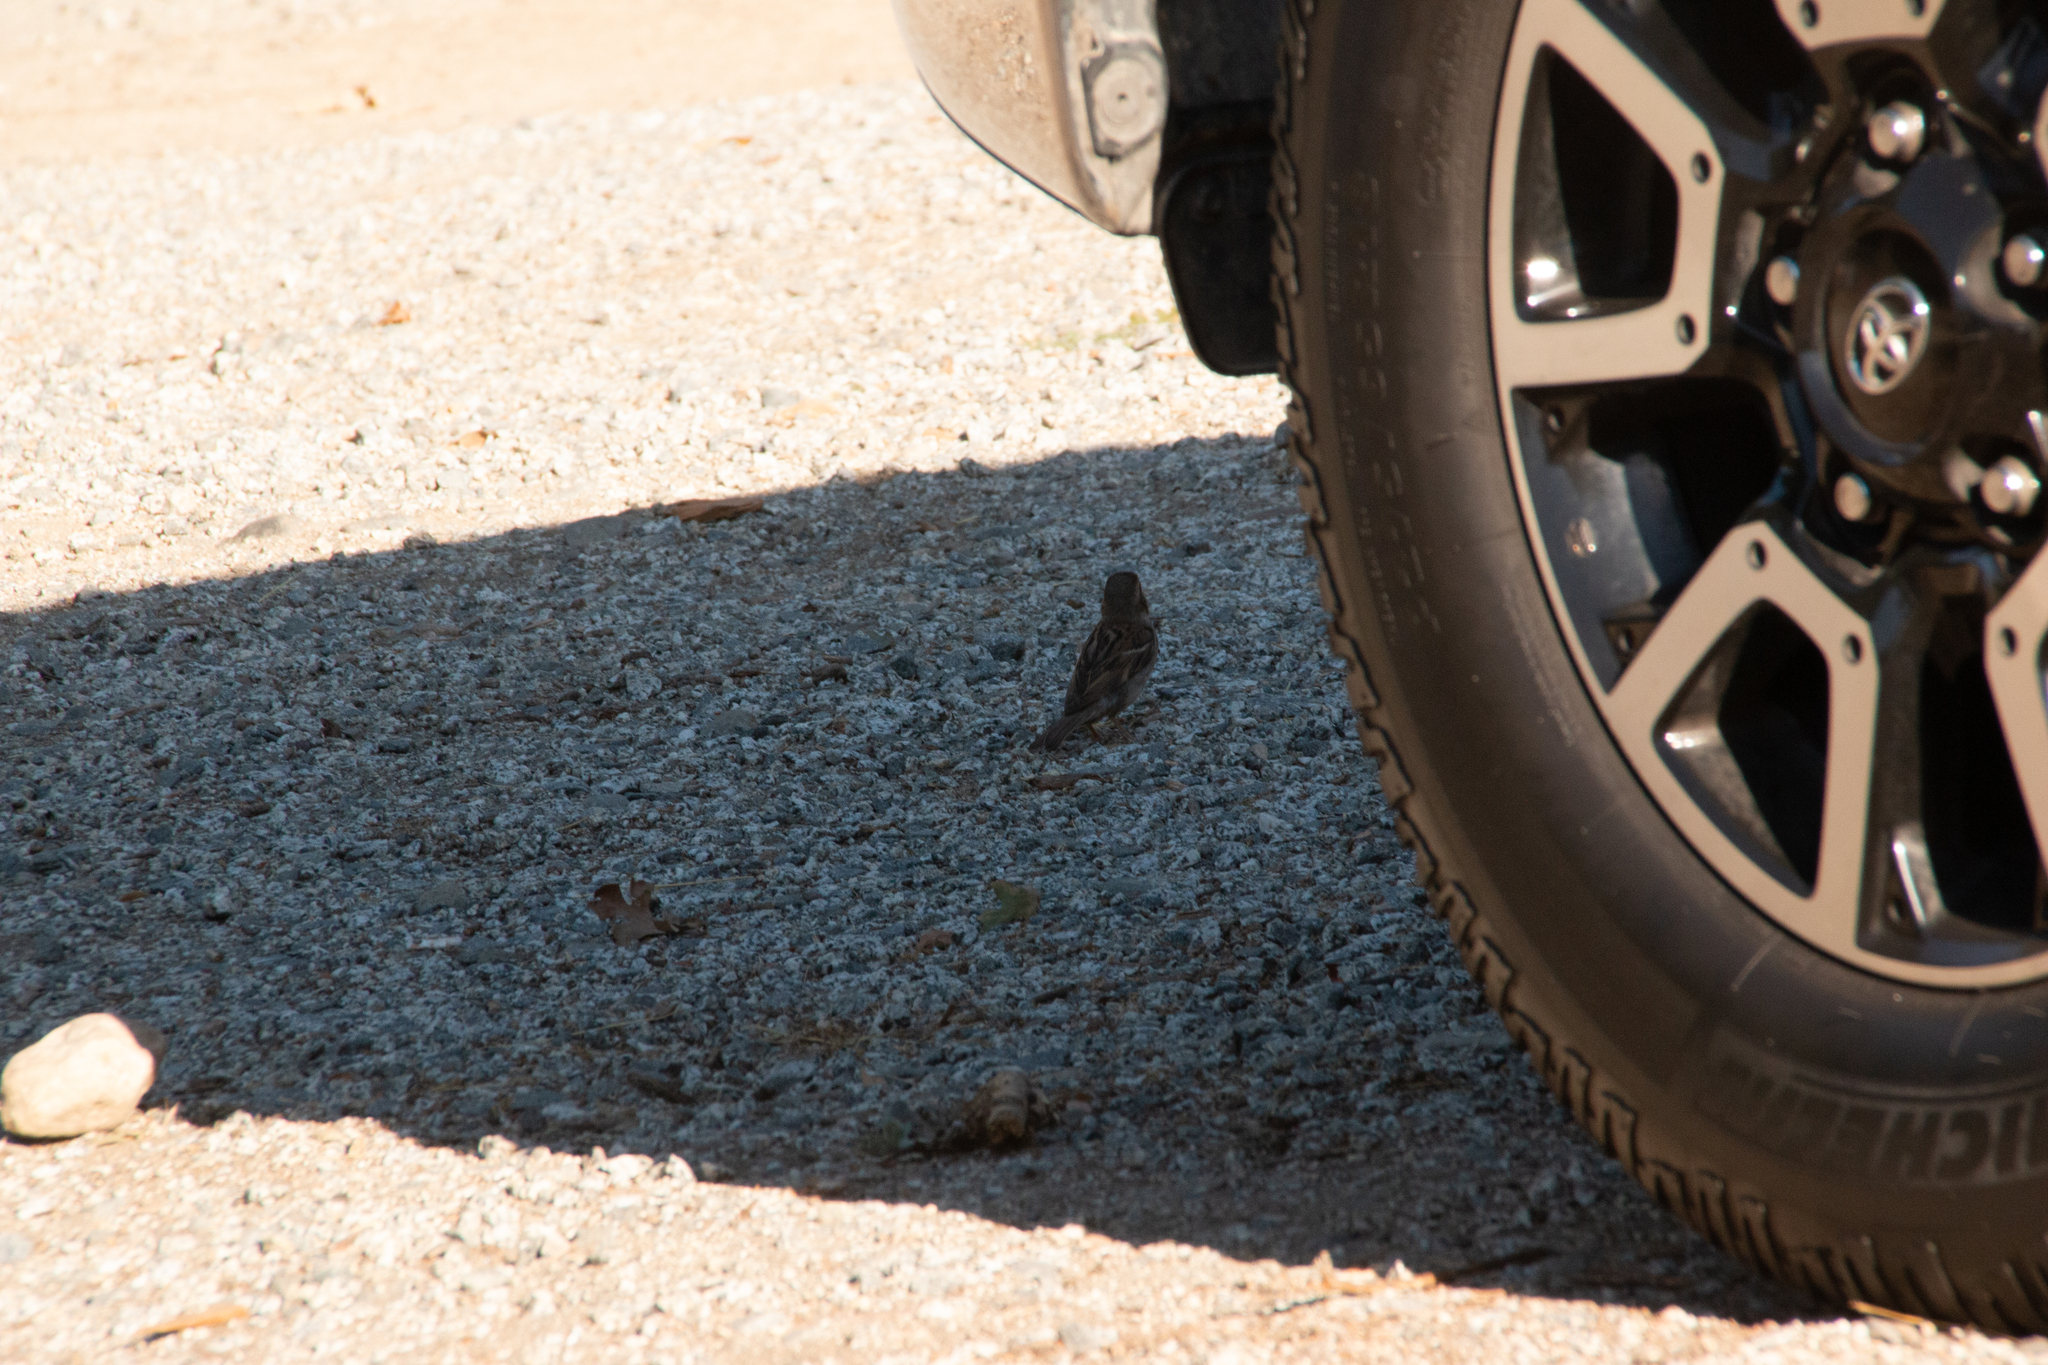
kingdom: Animalia
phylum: Chordata
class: Aves
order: Passeriformes
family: Passeridae
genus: Passer
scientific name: Passer domesticus
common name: House sparrow
